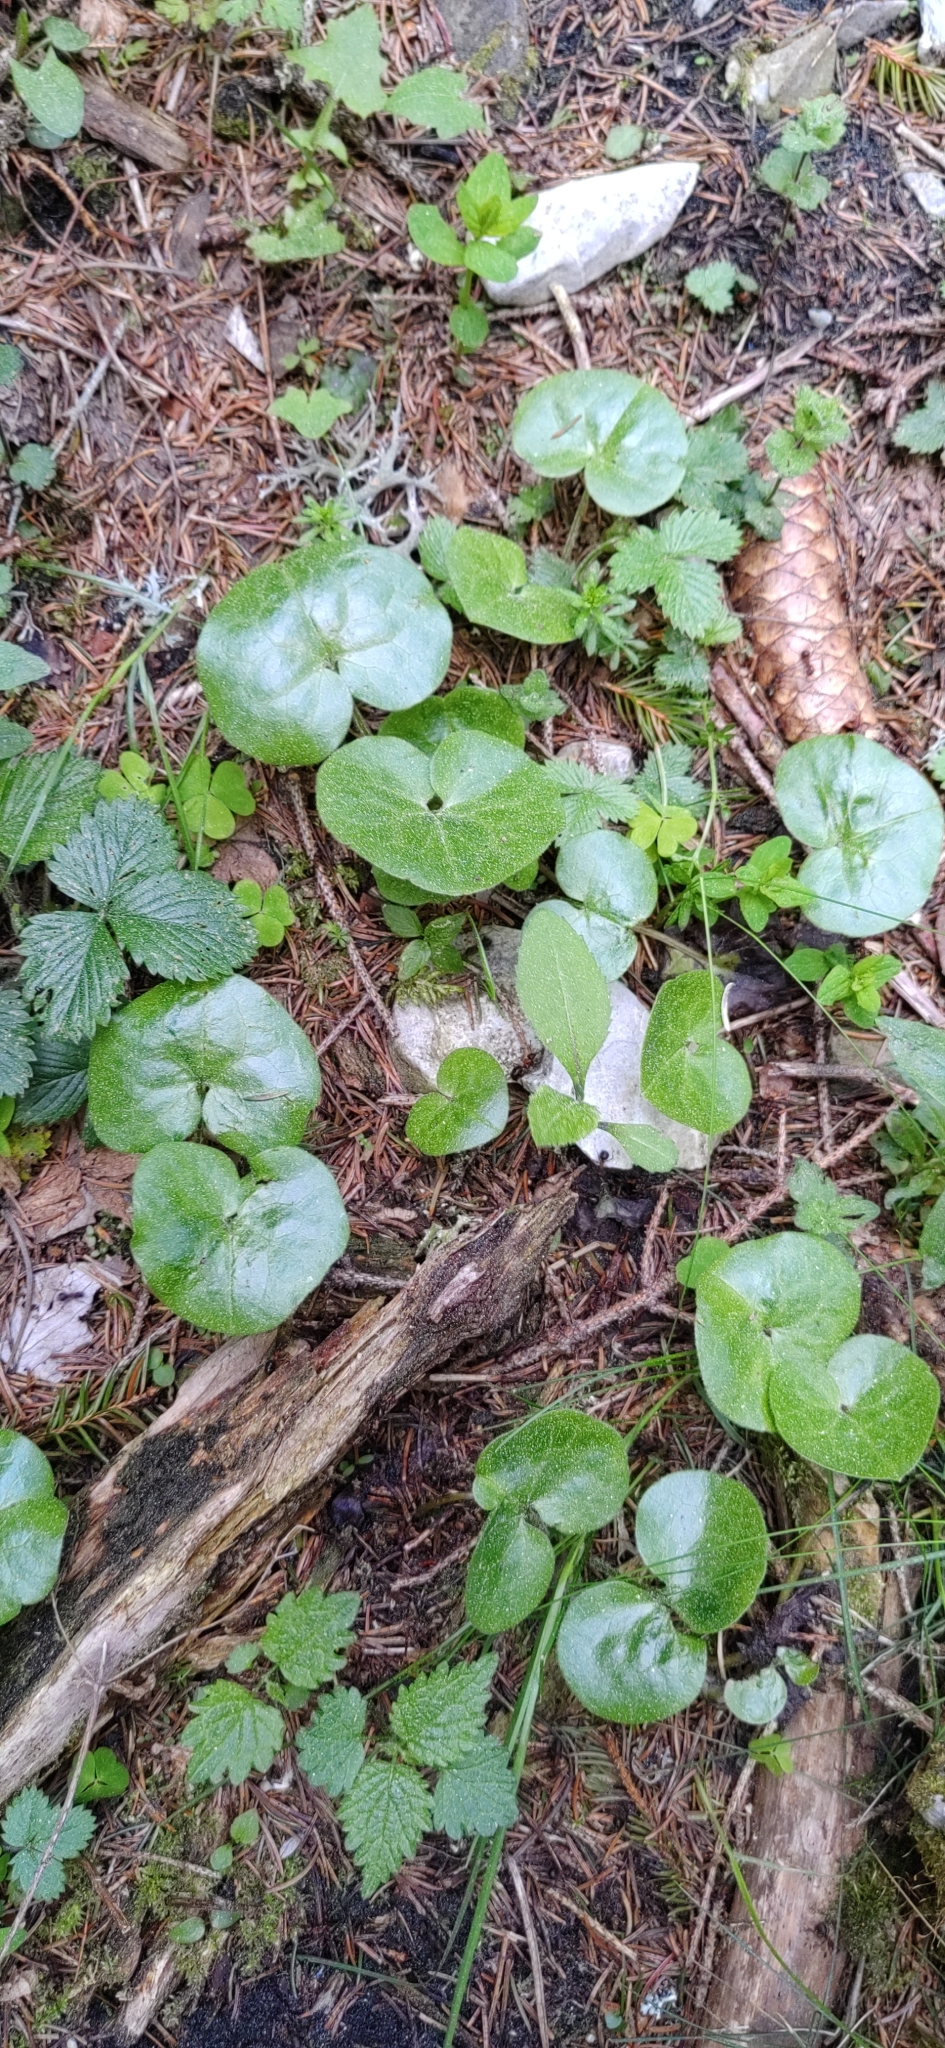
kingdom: Plantae
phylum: Tracheophyta
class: Magnoliopsida
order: Piperales
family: Aristolochiaceae
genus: Asarum
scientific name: Asarum europaeum
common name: Asarabacca
